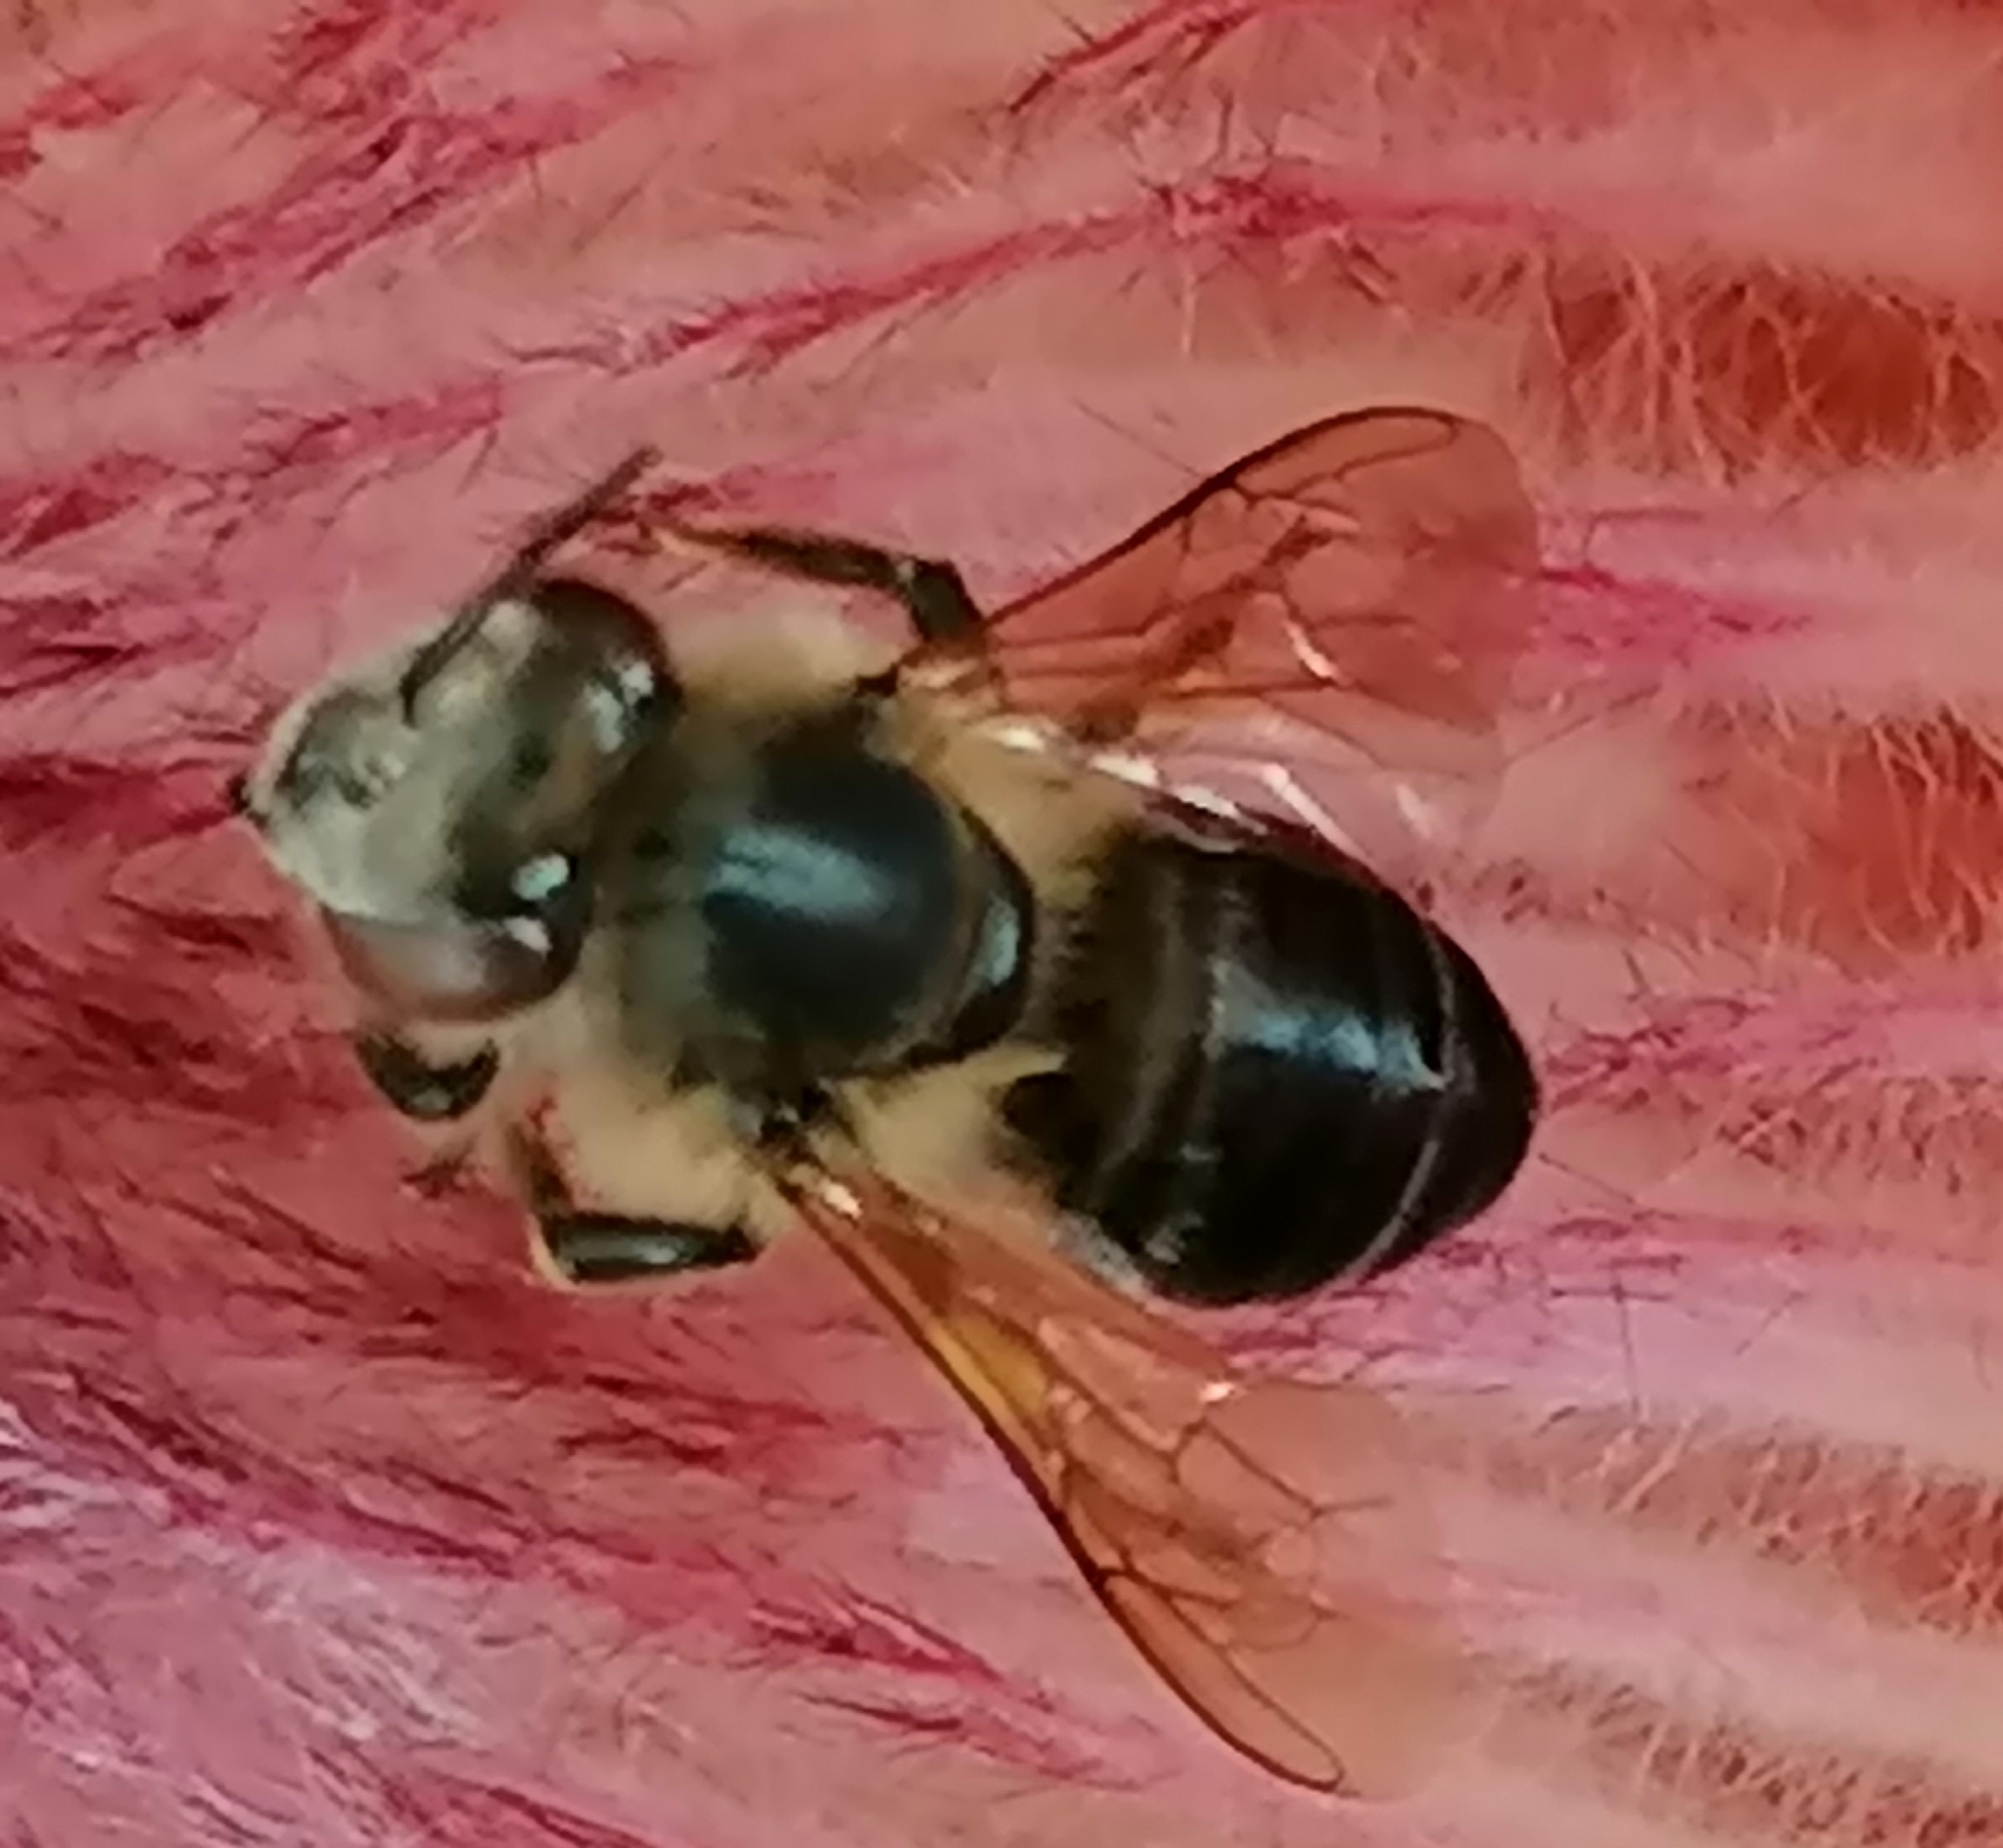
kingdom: Animalia
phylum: Arthropoda
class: Insecta
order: Hymenoptera
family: Apidae
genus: Apis
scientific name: Apis mellifera
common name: Honey bee
